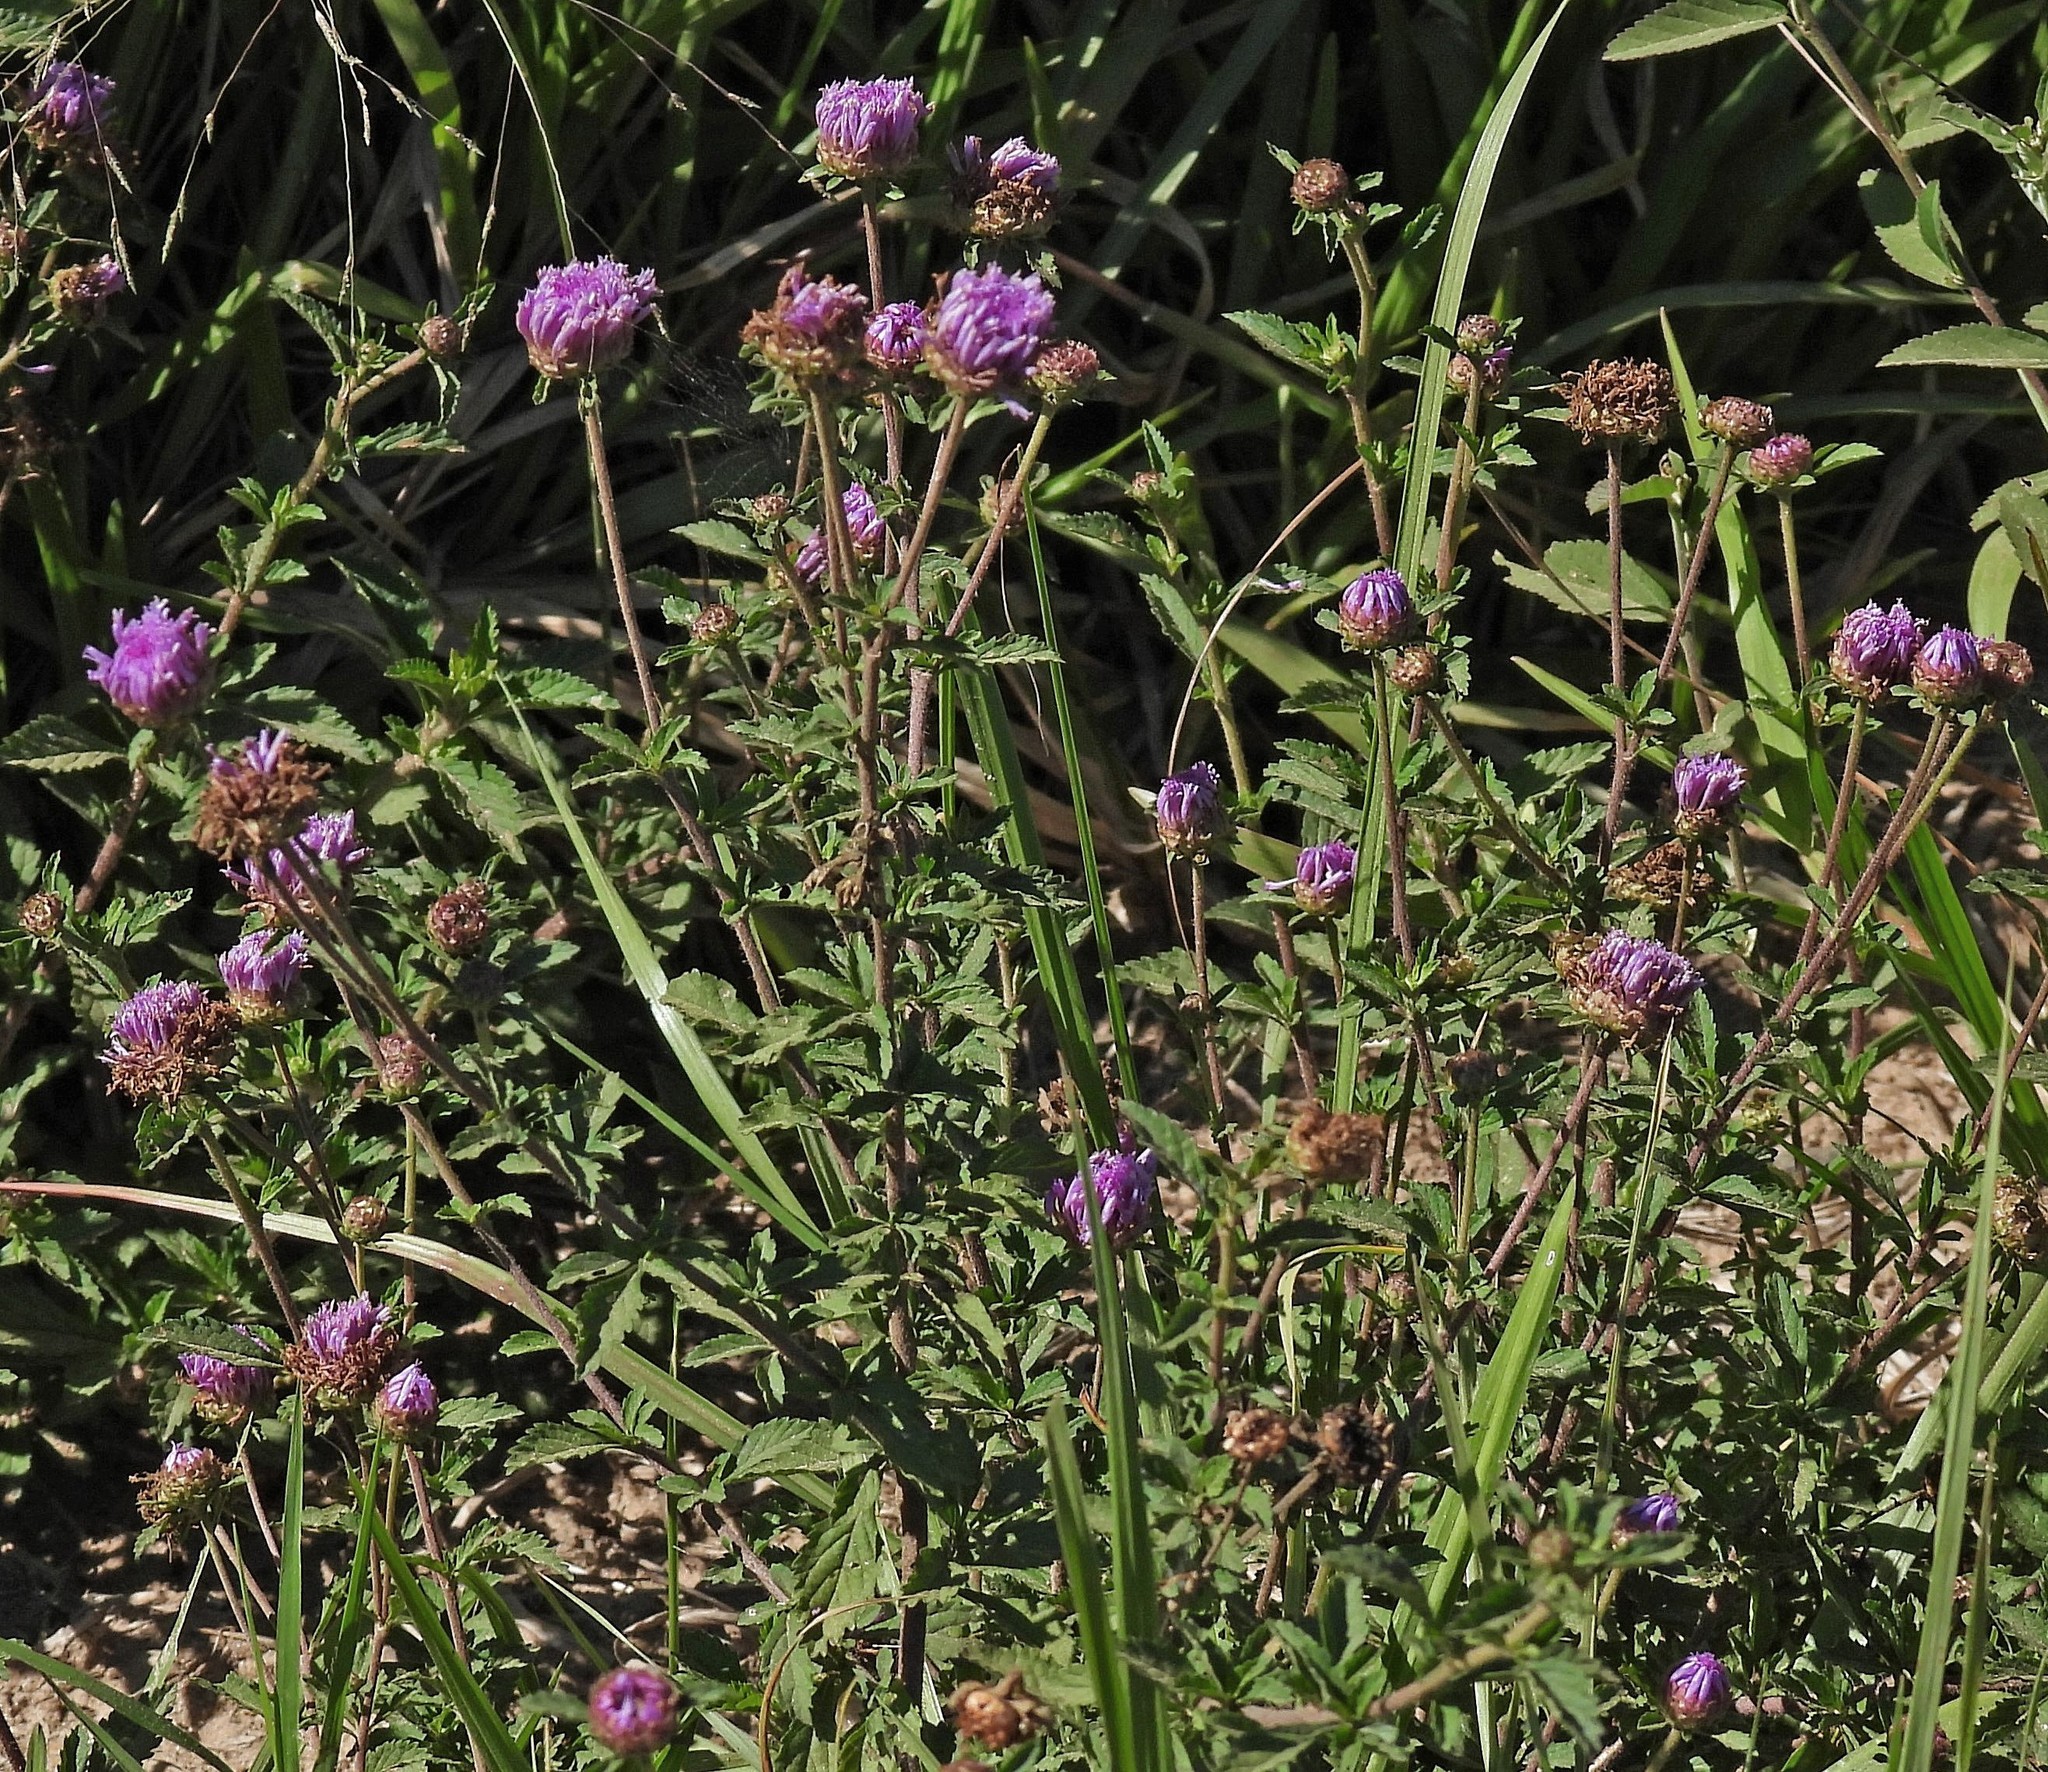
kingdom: Plantae
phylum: Tracheophyta
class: Magnoliopsida
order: Asterales
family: Asteraceae
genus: Centratherum
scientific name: Centratherum punctatum
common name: Larkdaisy
